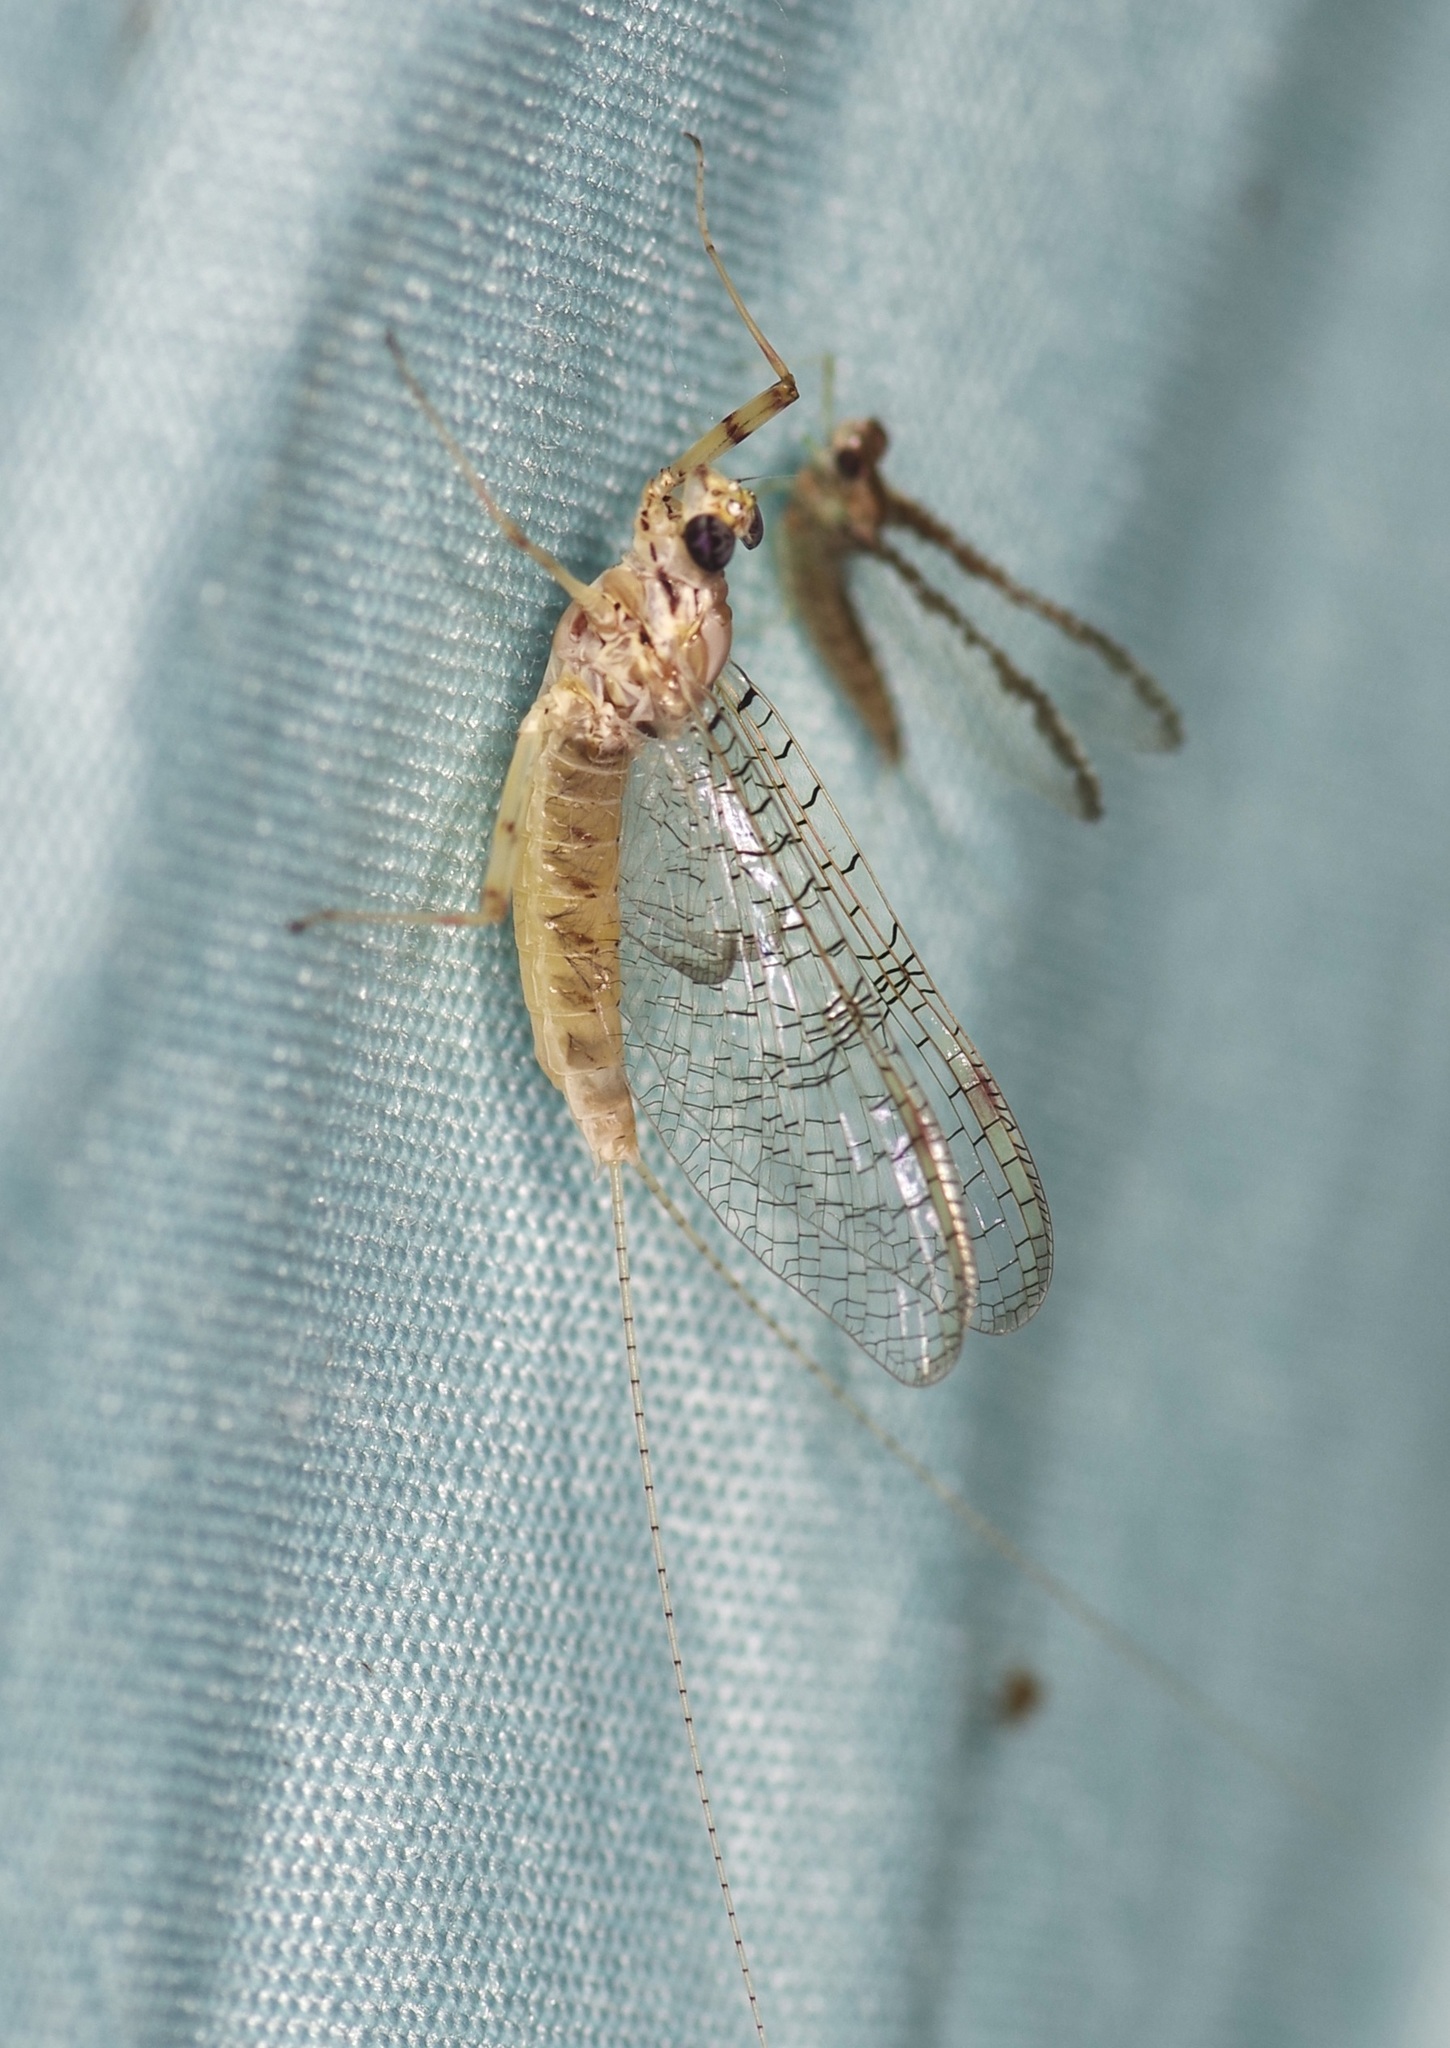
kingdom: Animalia
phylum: Arthropoda
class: Insecta
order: Ephemeroptera
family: Heptageniidae
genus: Stenonema
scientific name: Stenonema femoratum
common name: Dark cahill
